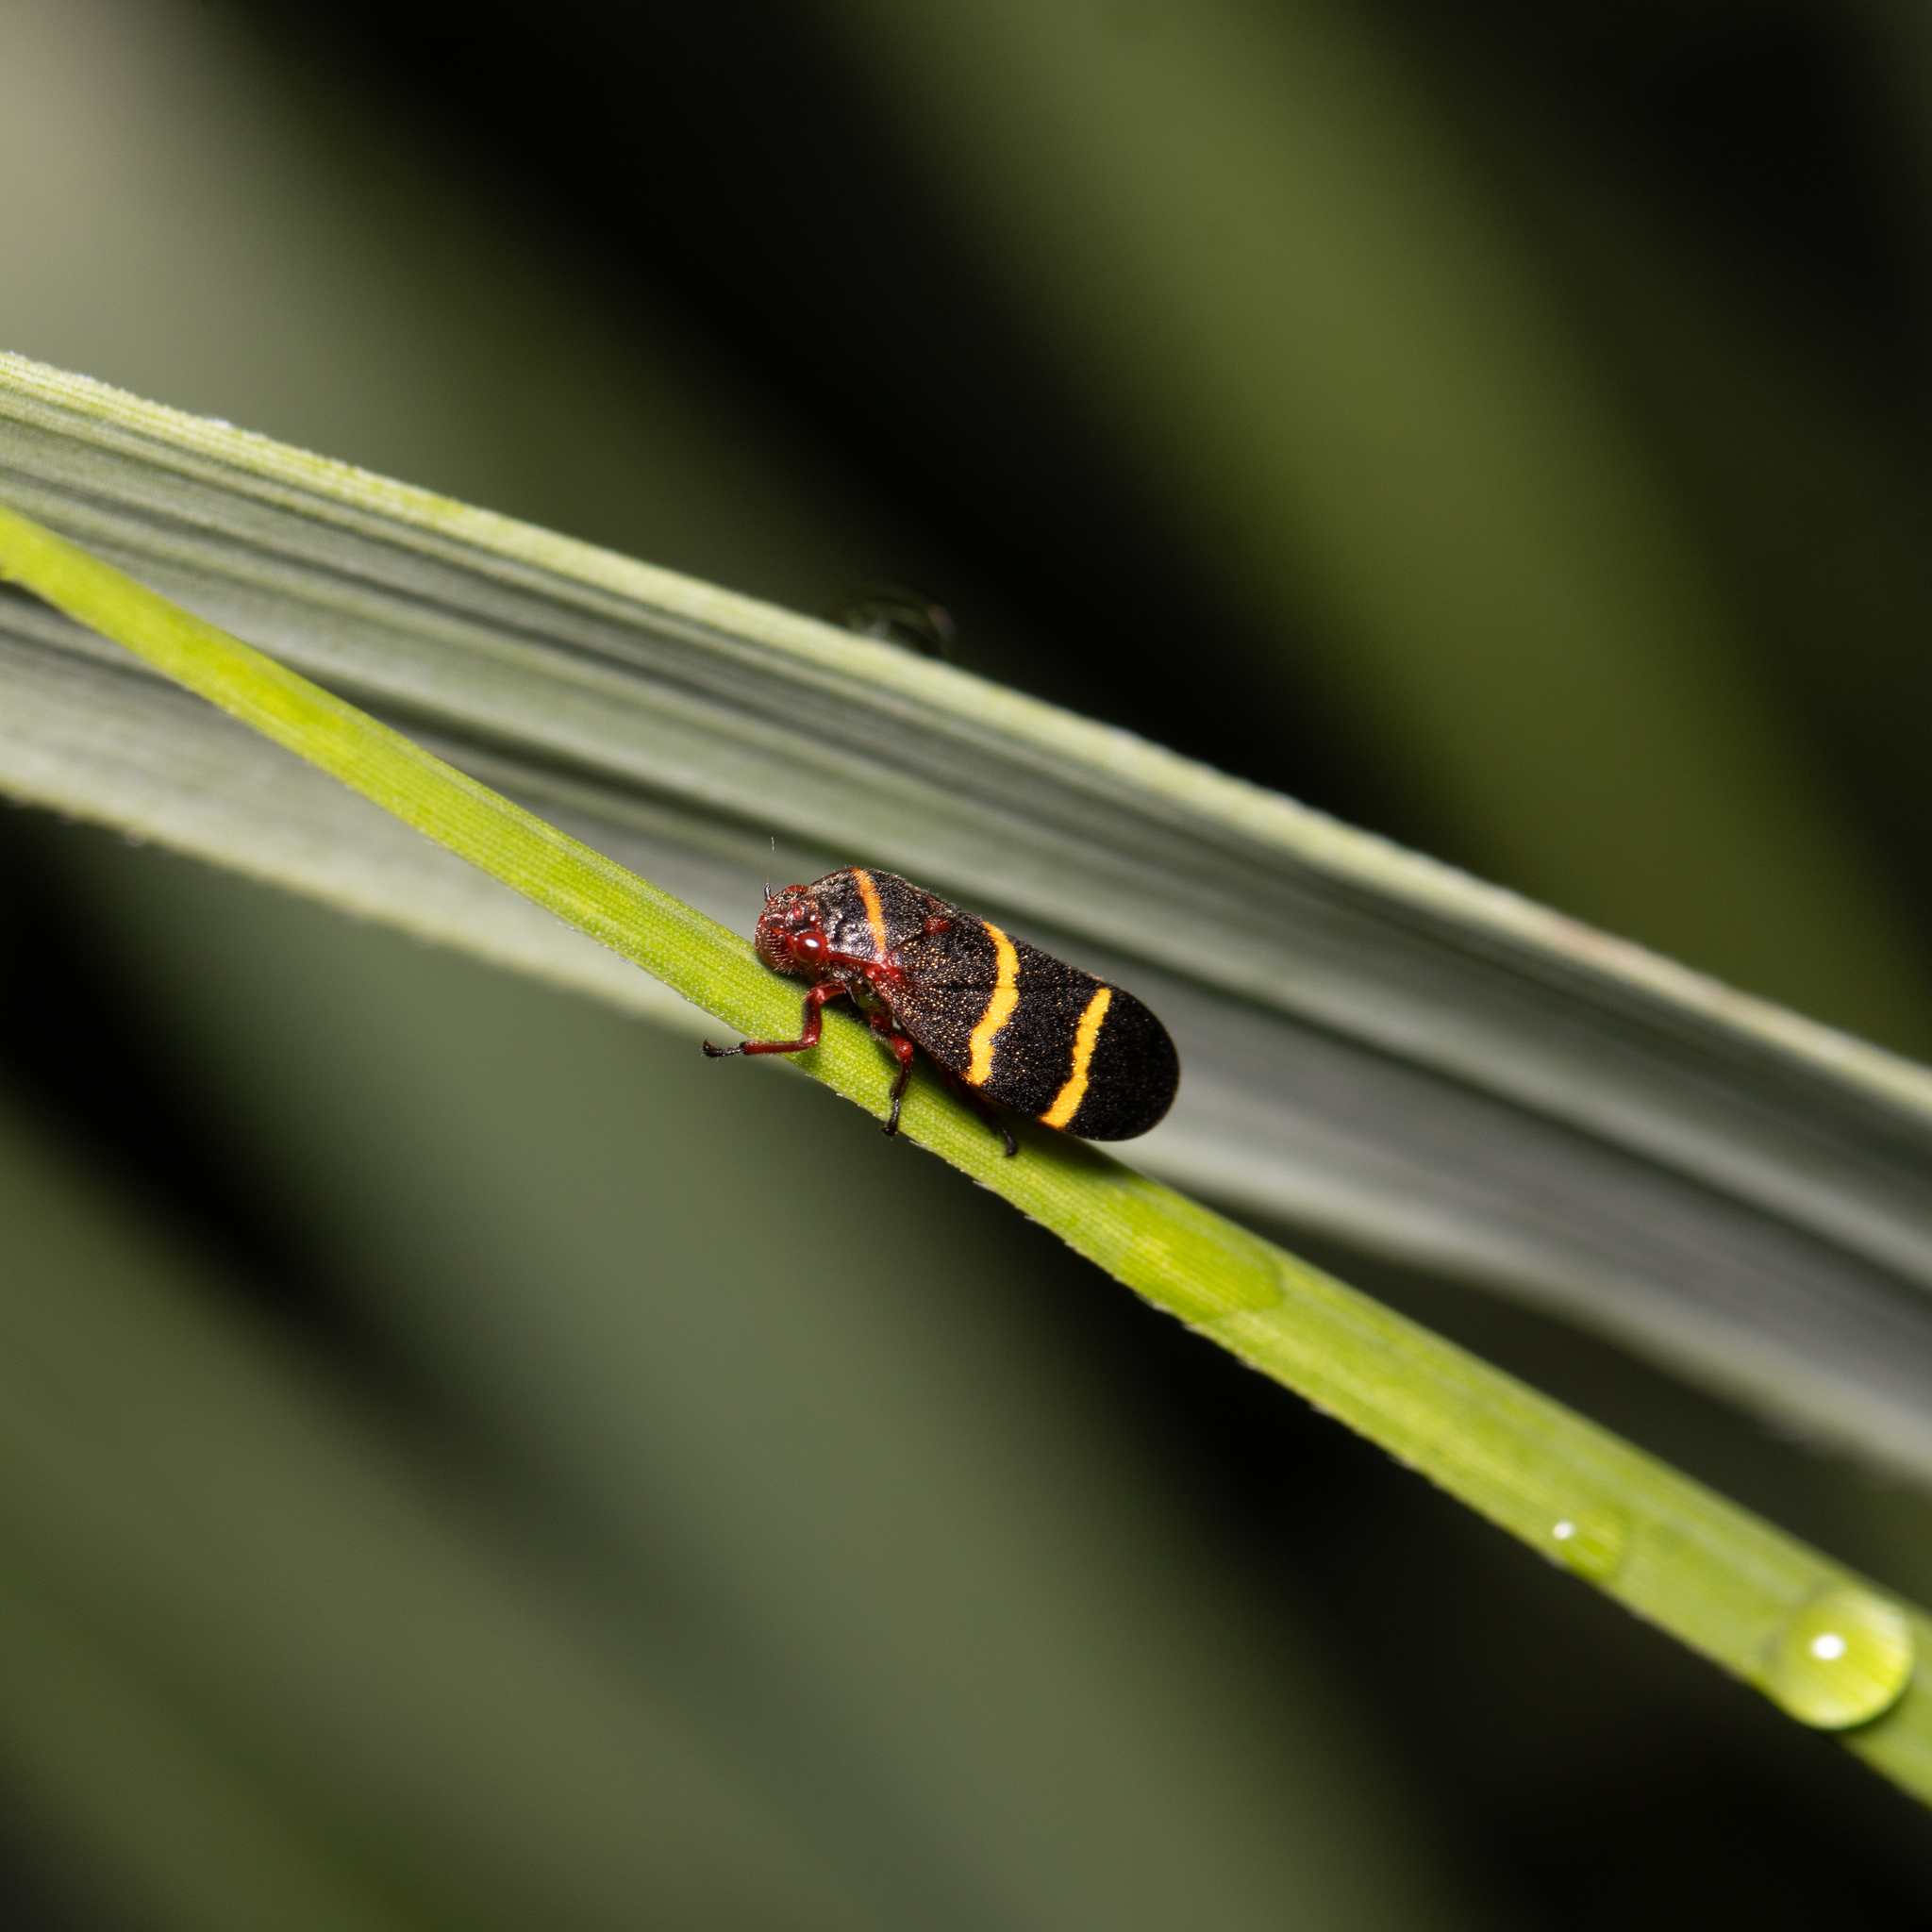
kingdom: Animalia
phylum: Arthropoda
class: Insecta
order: Hemiptera
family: Cercopidae
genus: Prosapia
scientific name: Prosapia bicincta
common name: Twolined spittlebug
